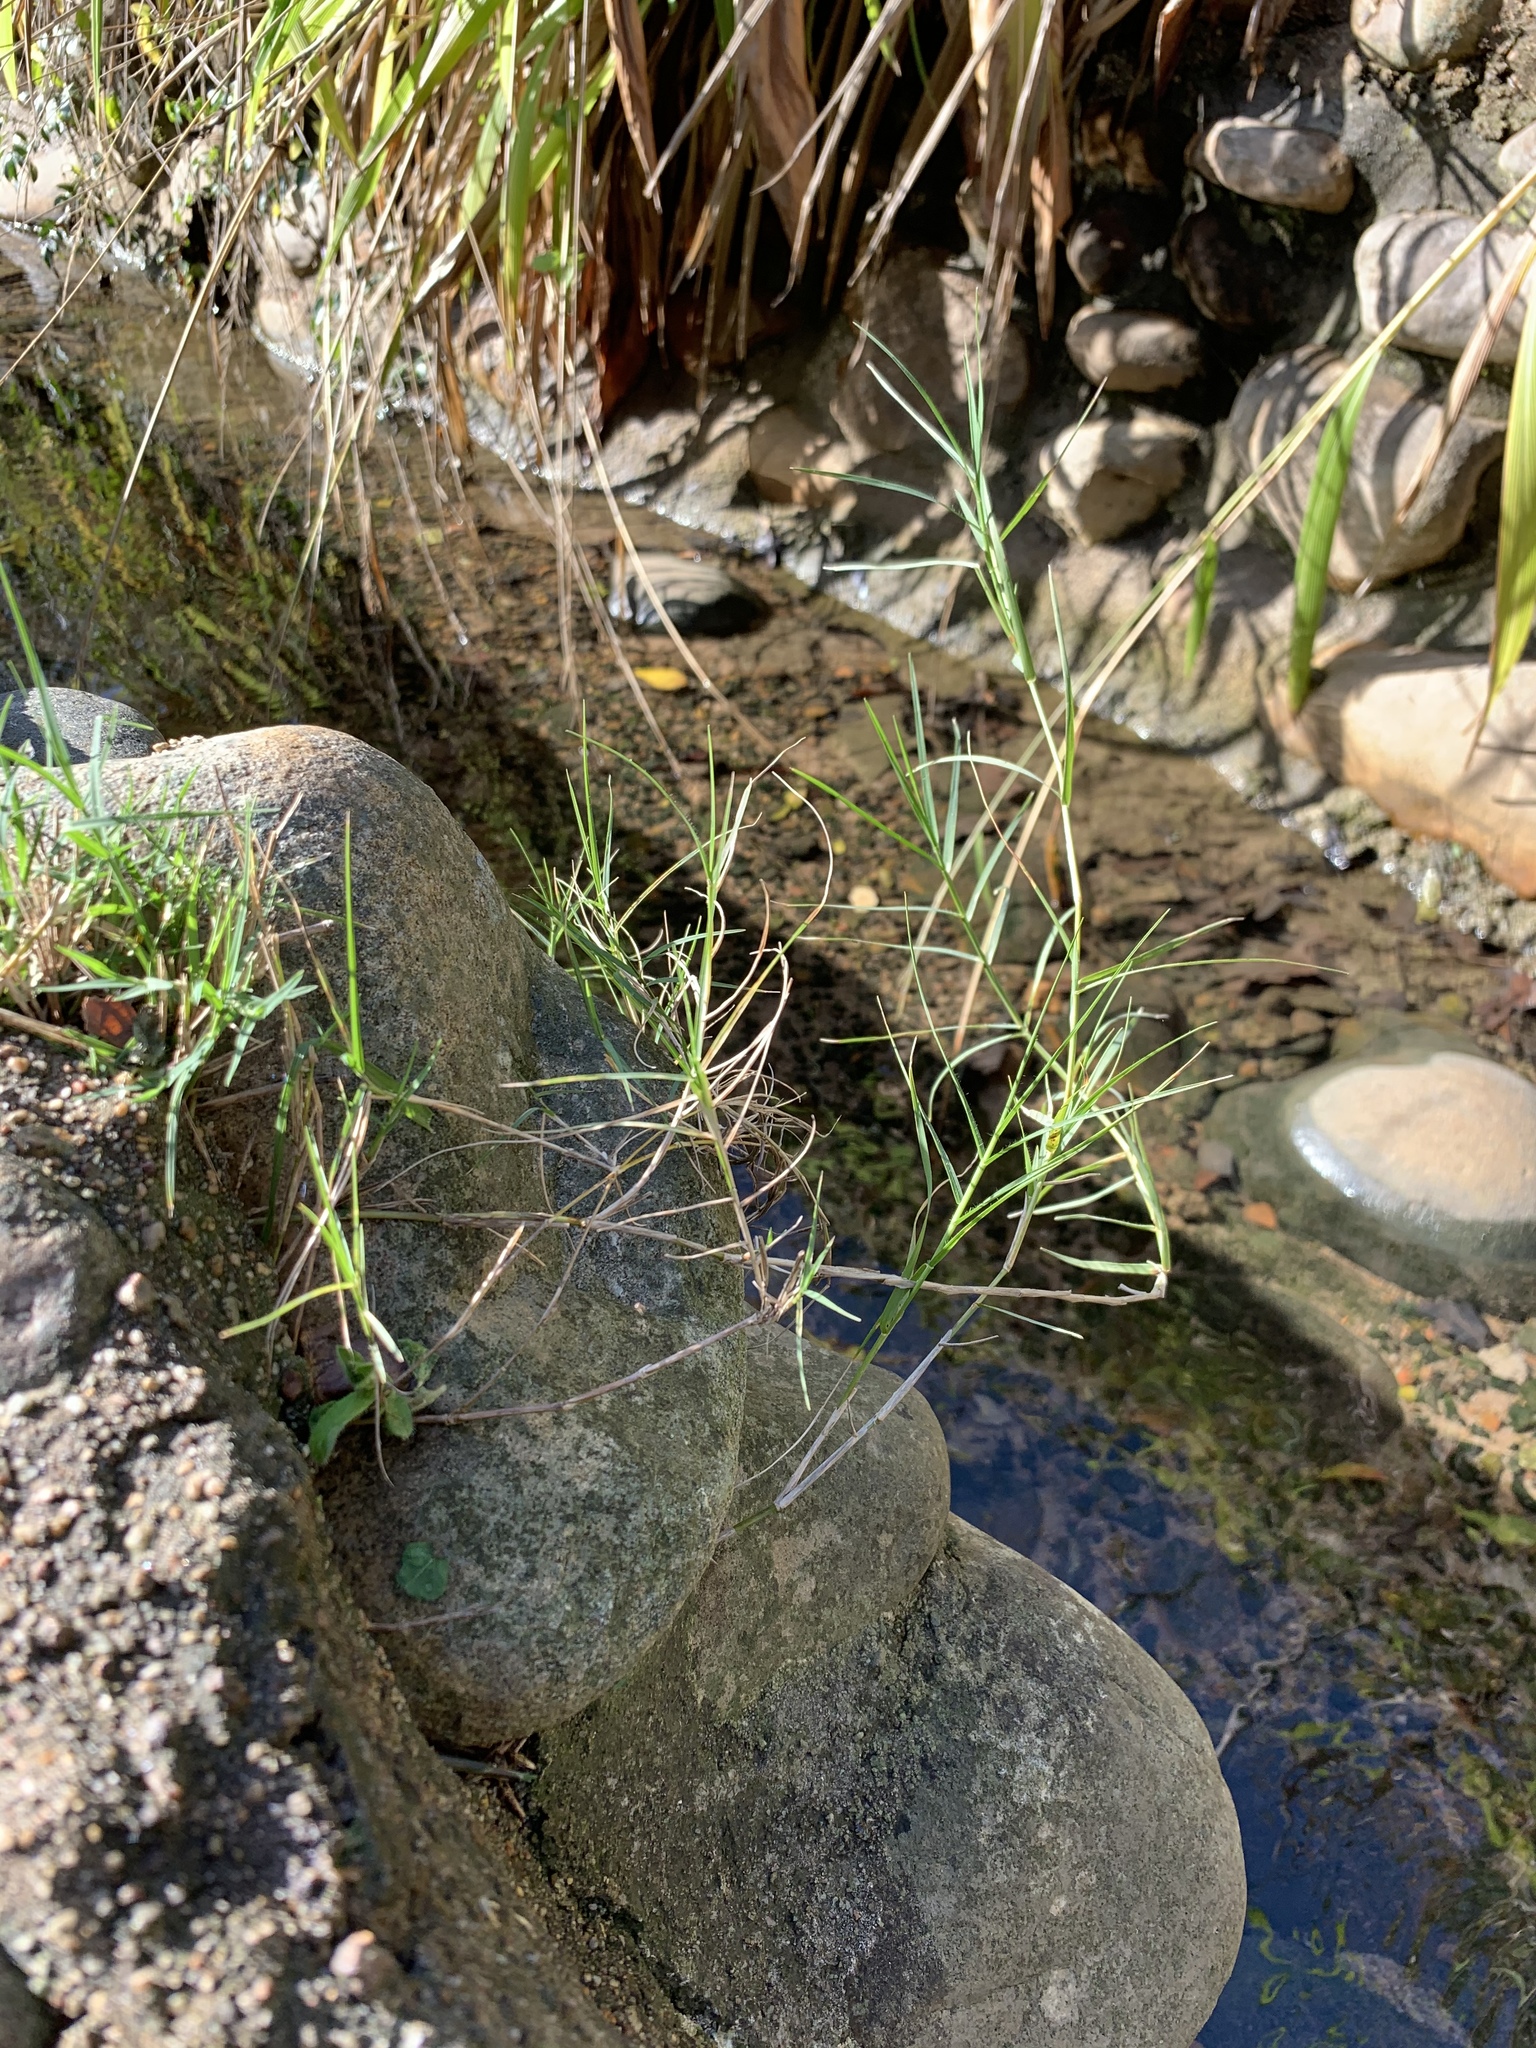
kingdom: Plantae
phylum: Tracheophyta
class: Liliopsida
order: Poales
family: Poaceae
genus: Cynodon
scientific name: Cynodon dactylon
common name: Bermuda grass
